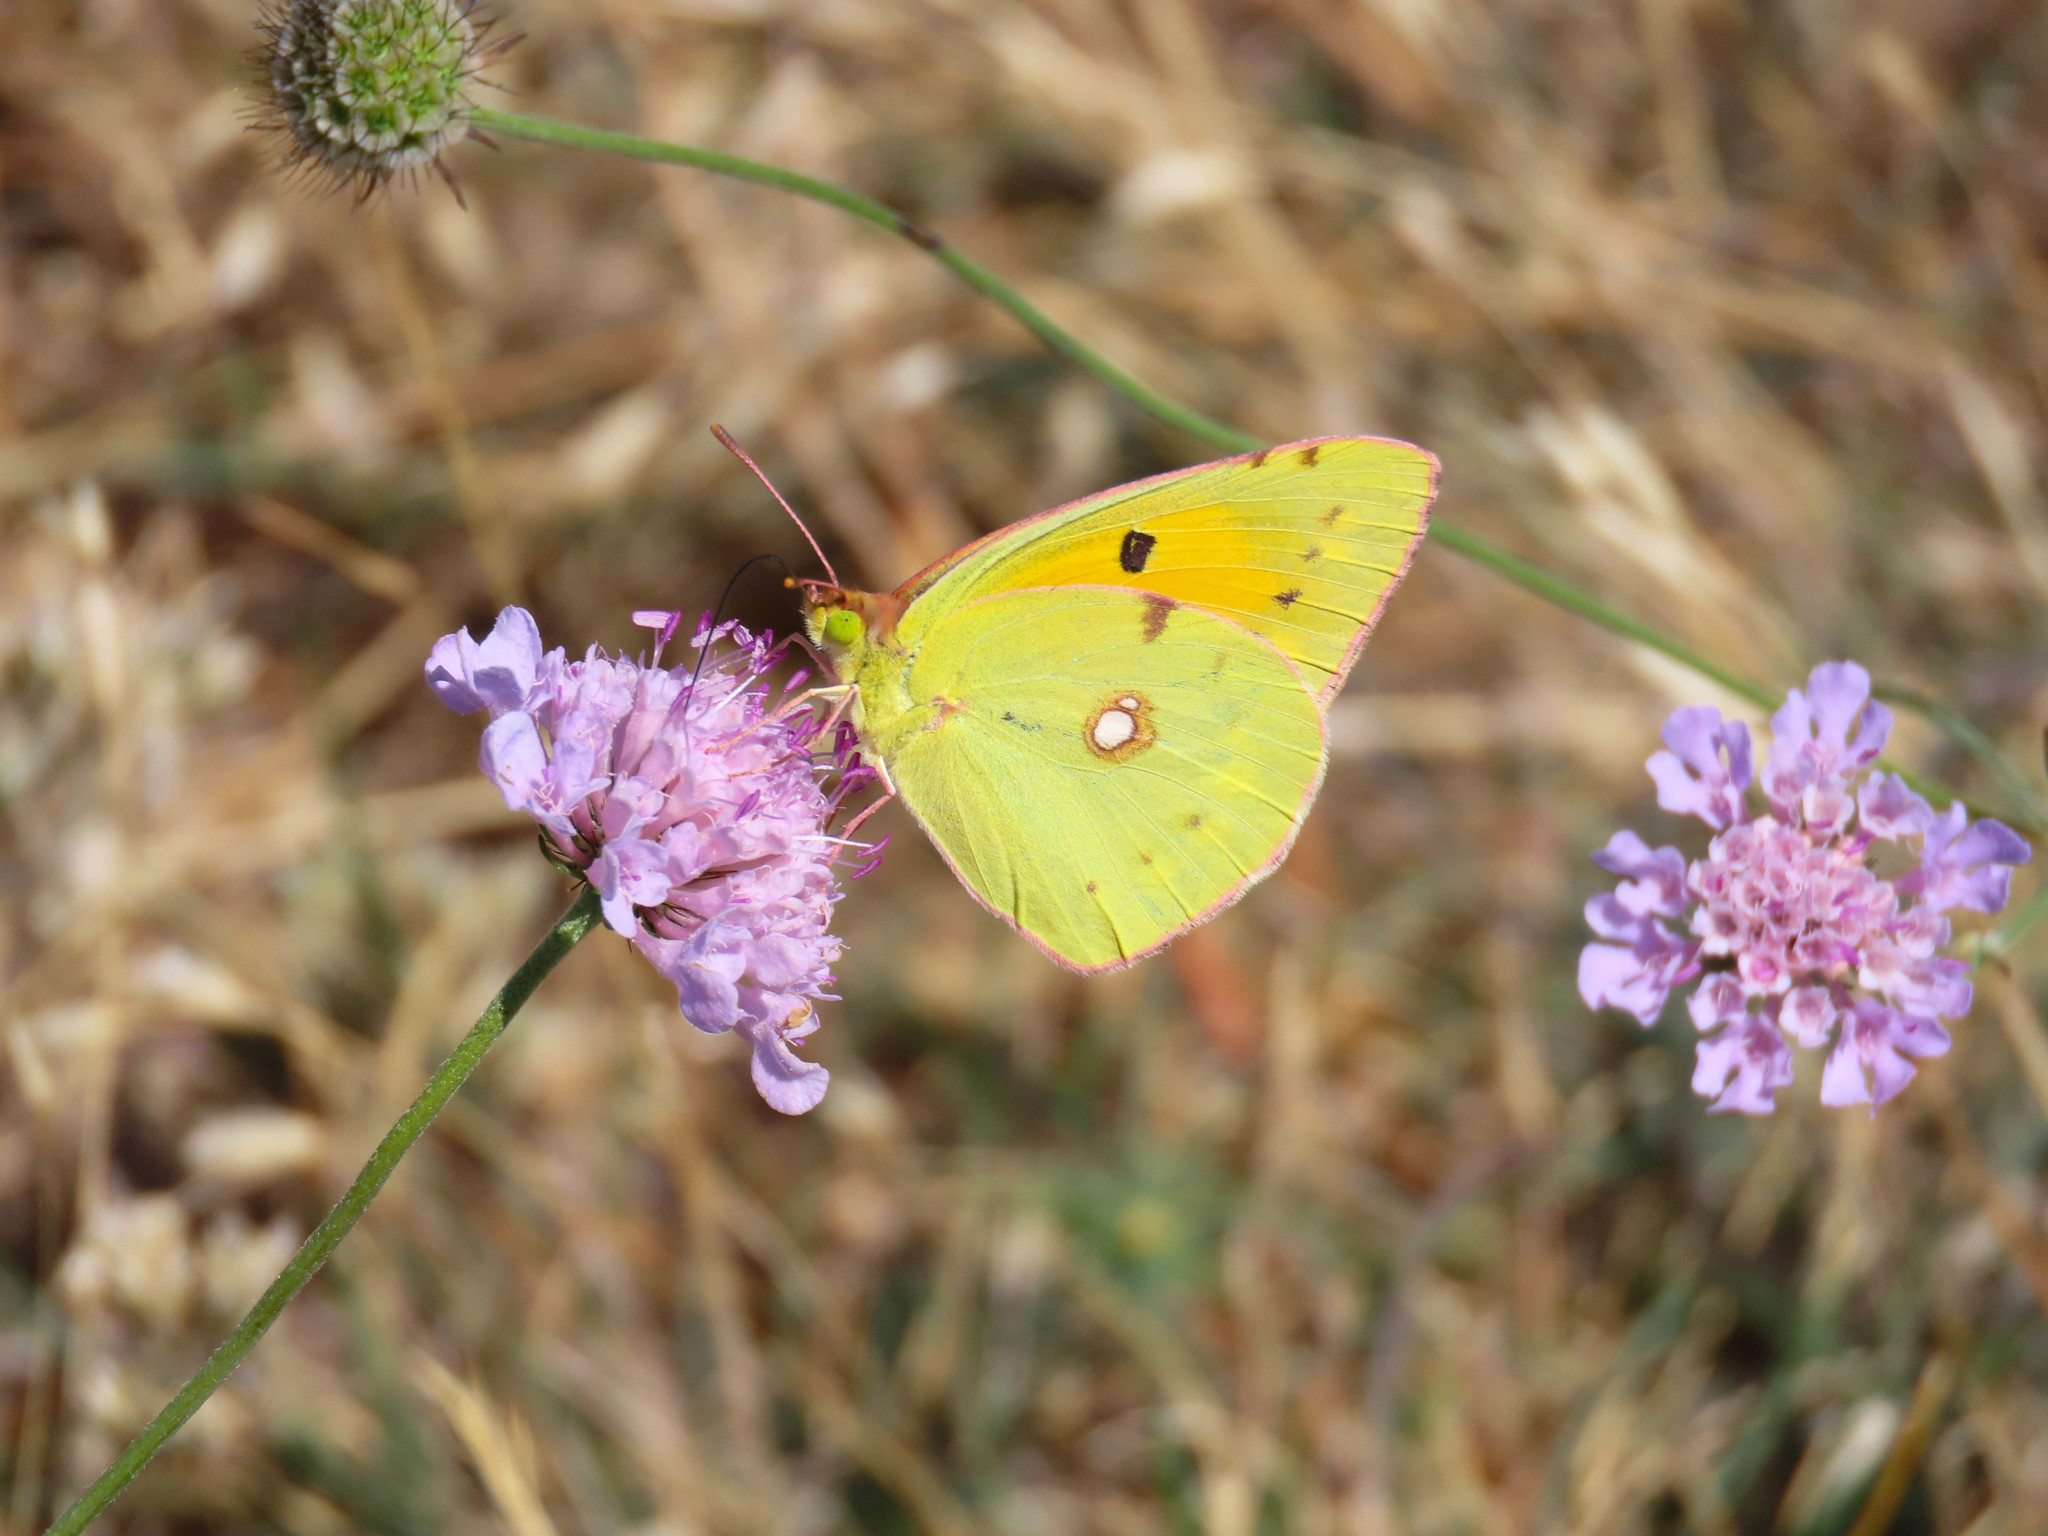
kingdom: Animalia
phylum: Arthropoda
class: Insecta
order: Lepidoptera
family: Pieridae
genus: Colias
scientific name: Colias croceus
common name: Clouded yellow
